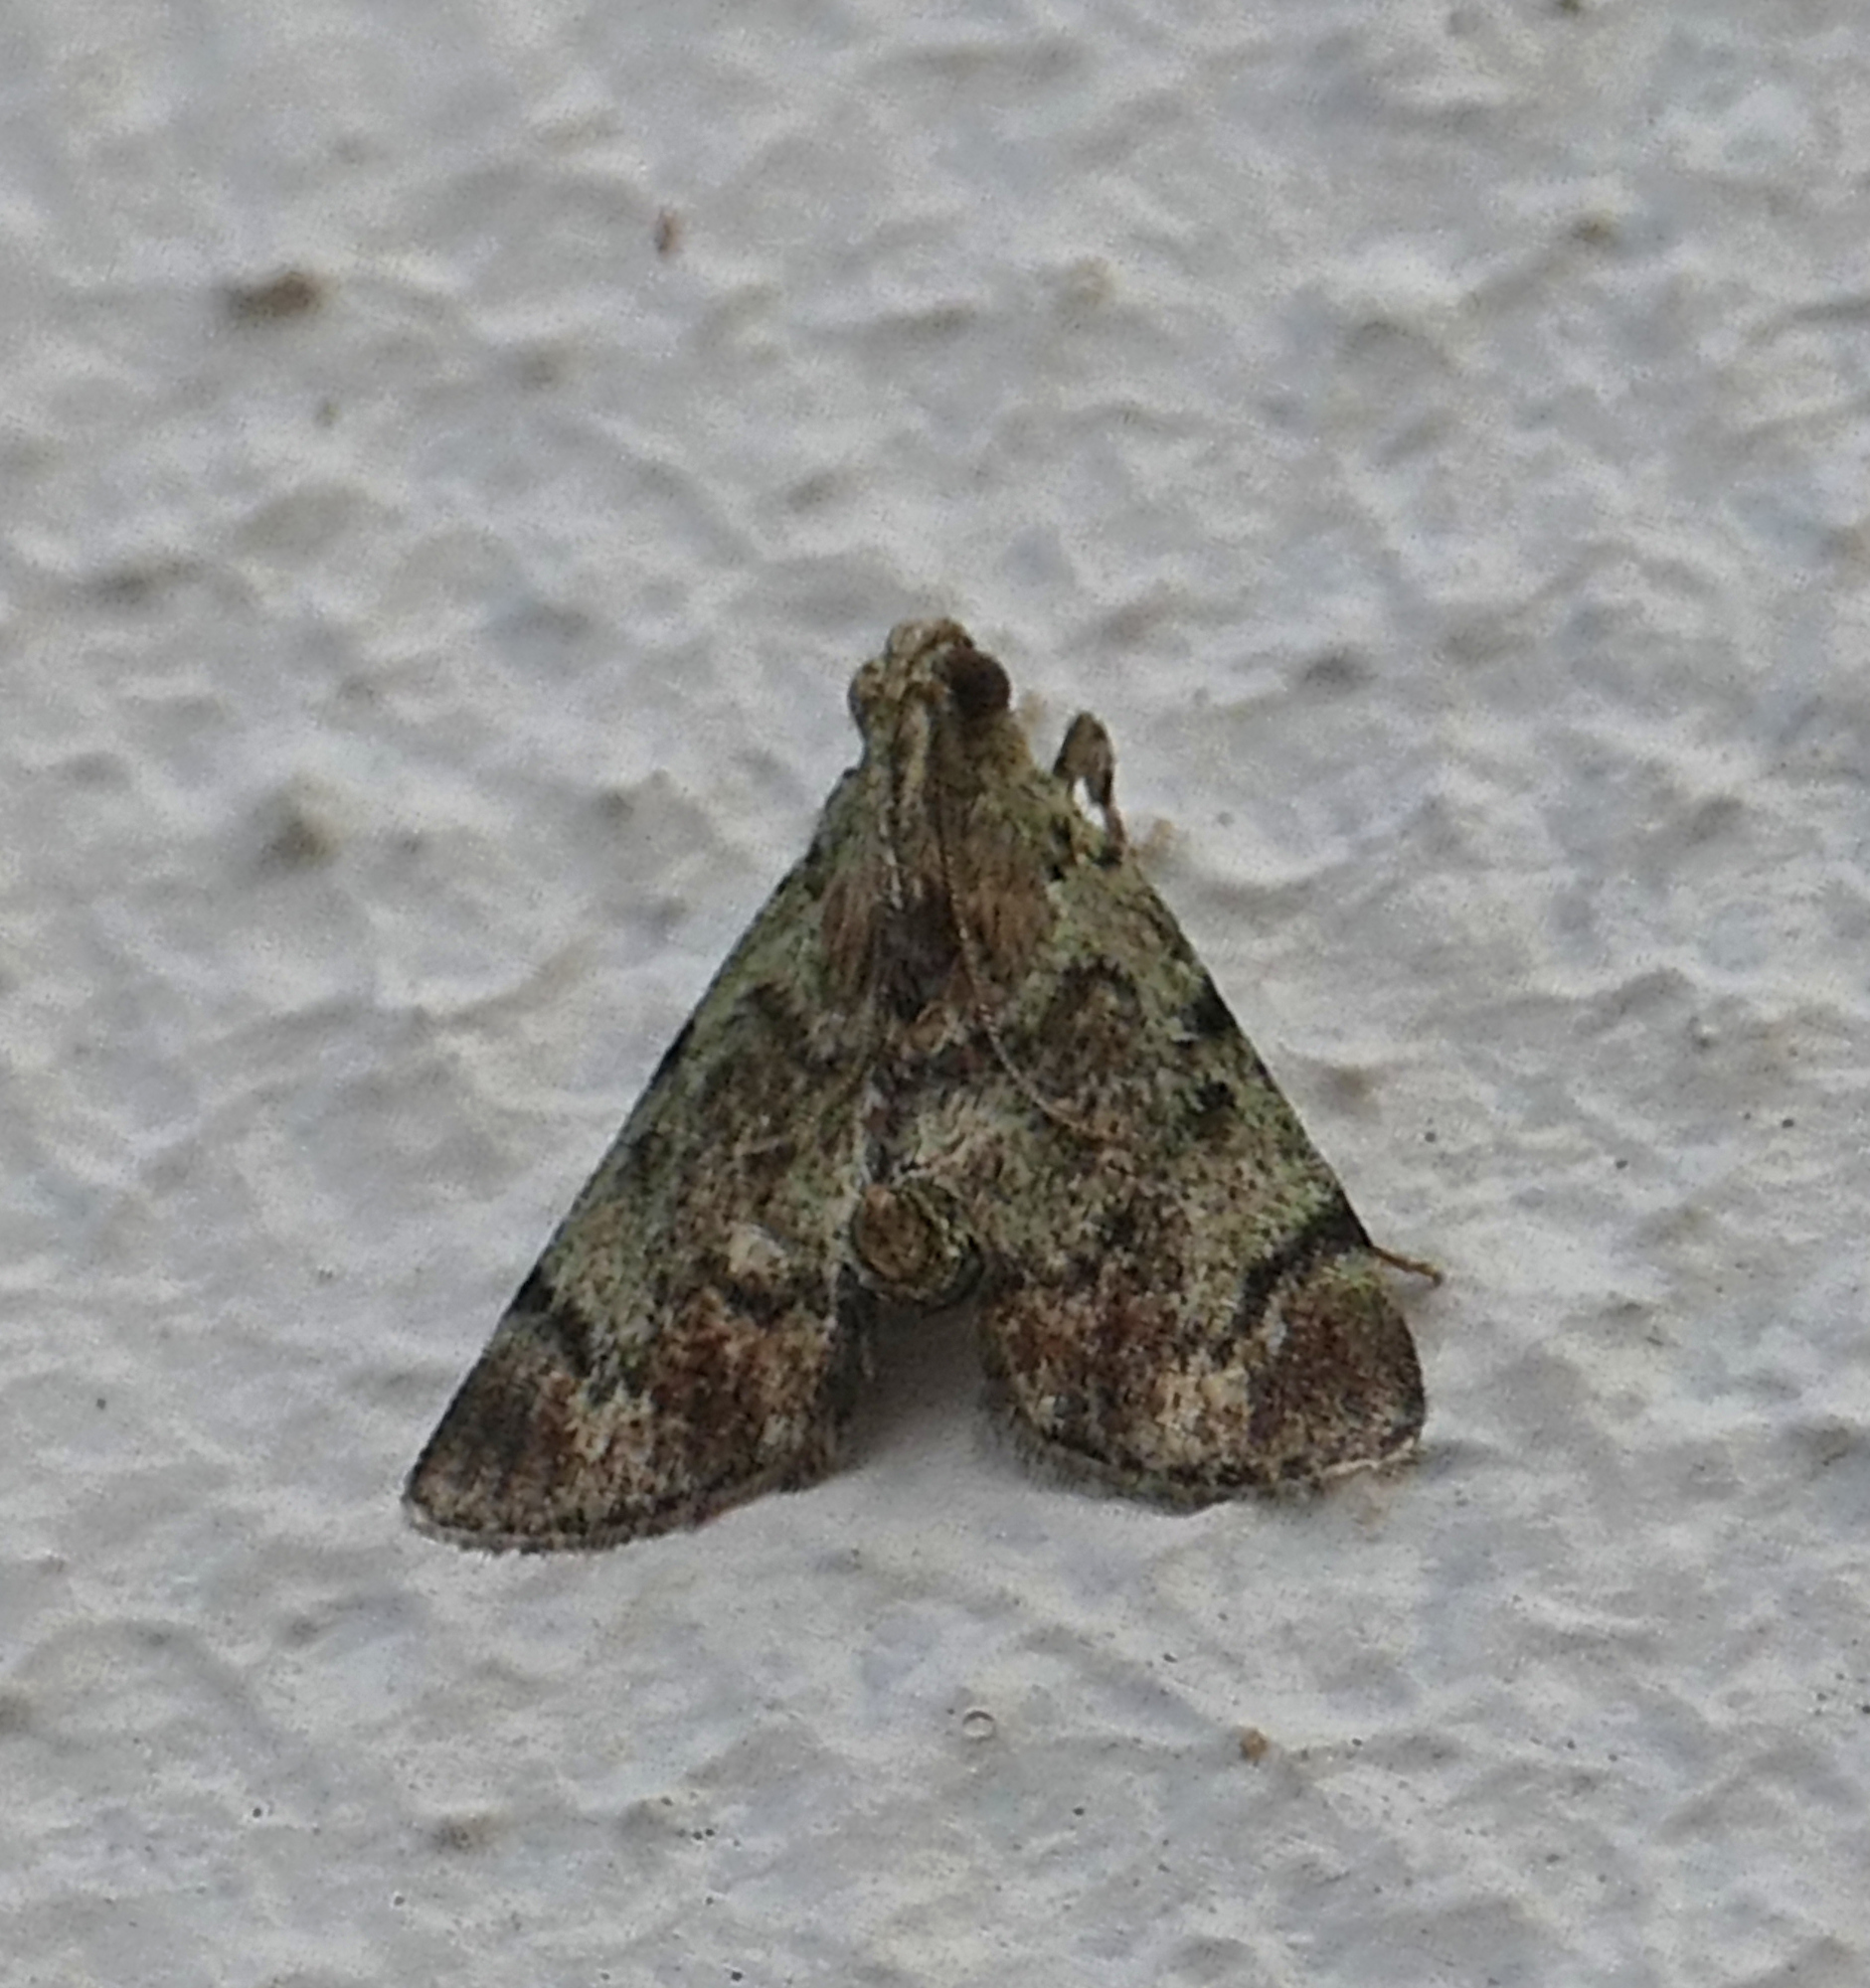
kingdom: Animalia
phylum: Arthropoda
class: Insecta
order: Lepidoptera
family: Pyralidae
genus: Epipaschia
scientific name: Epipaschia superatalis
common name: Dimorphic macalla moth
